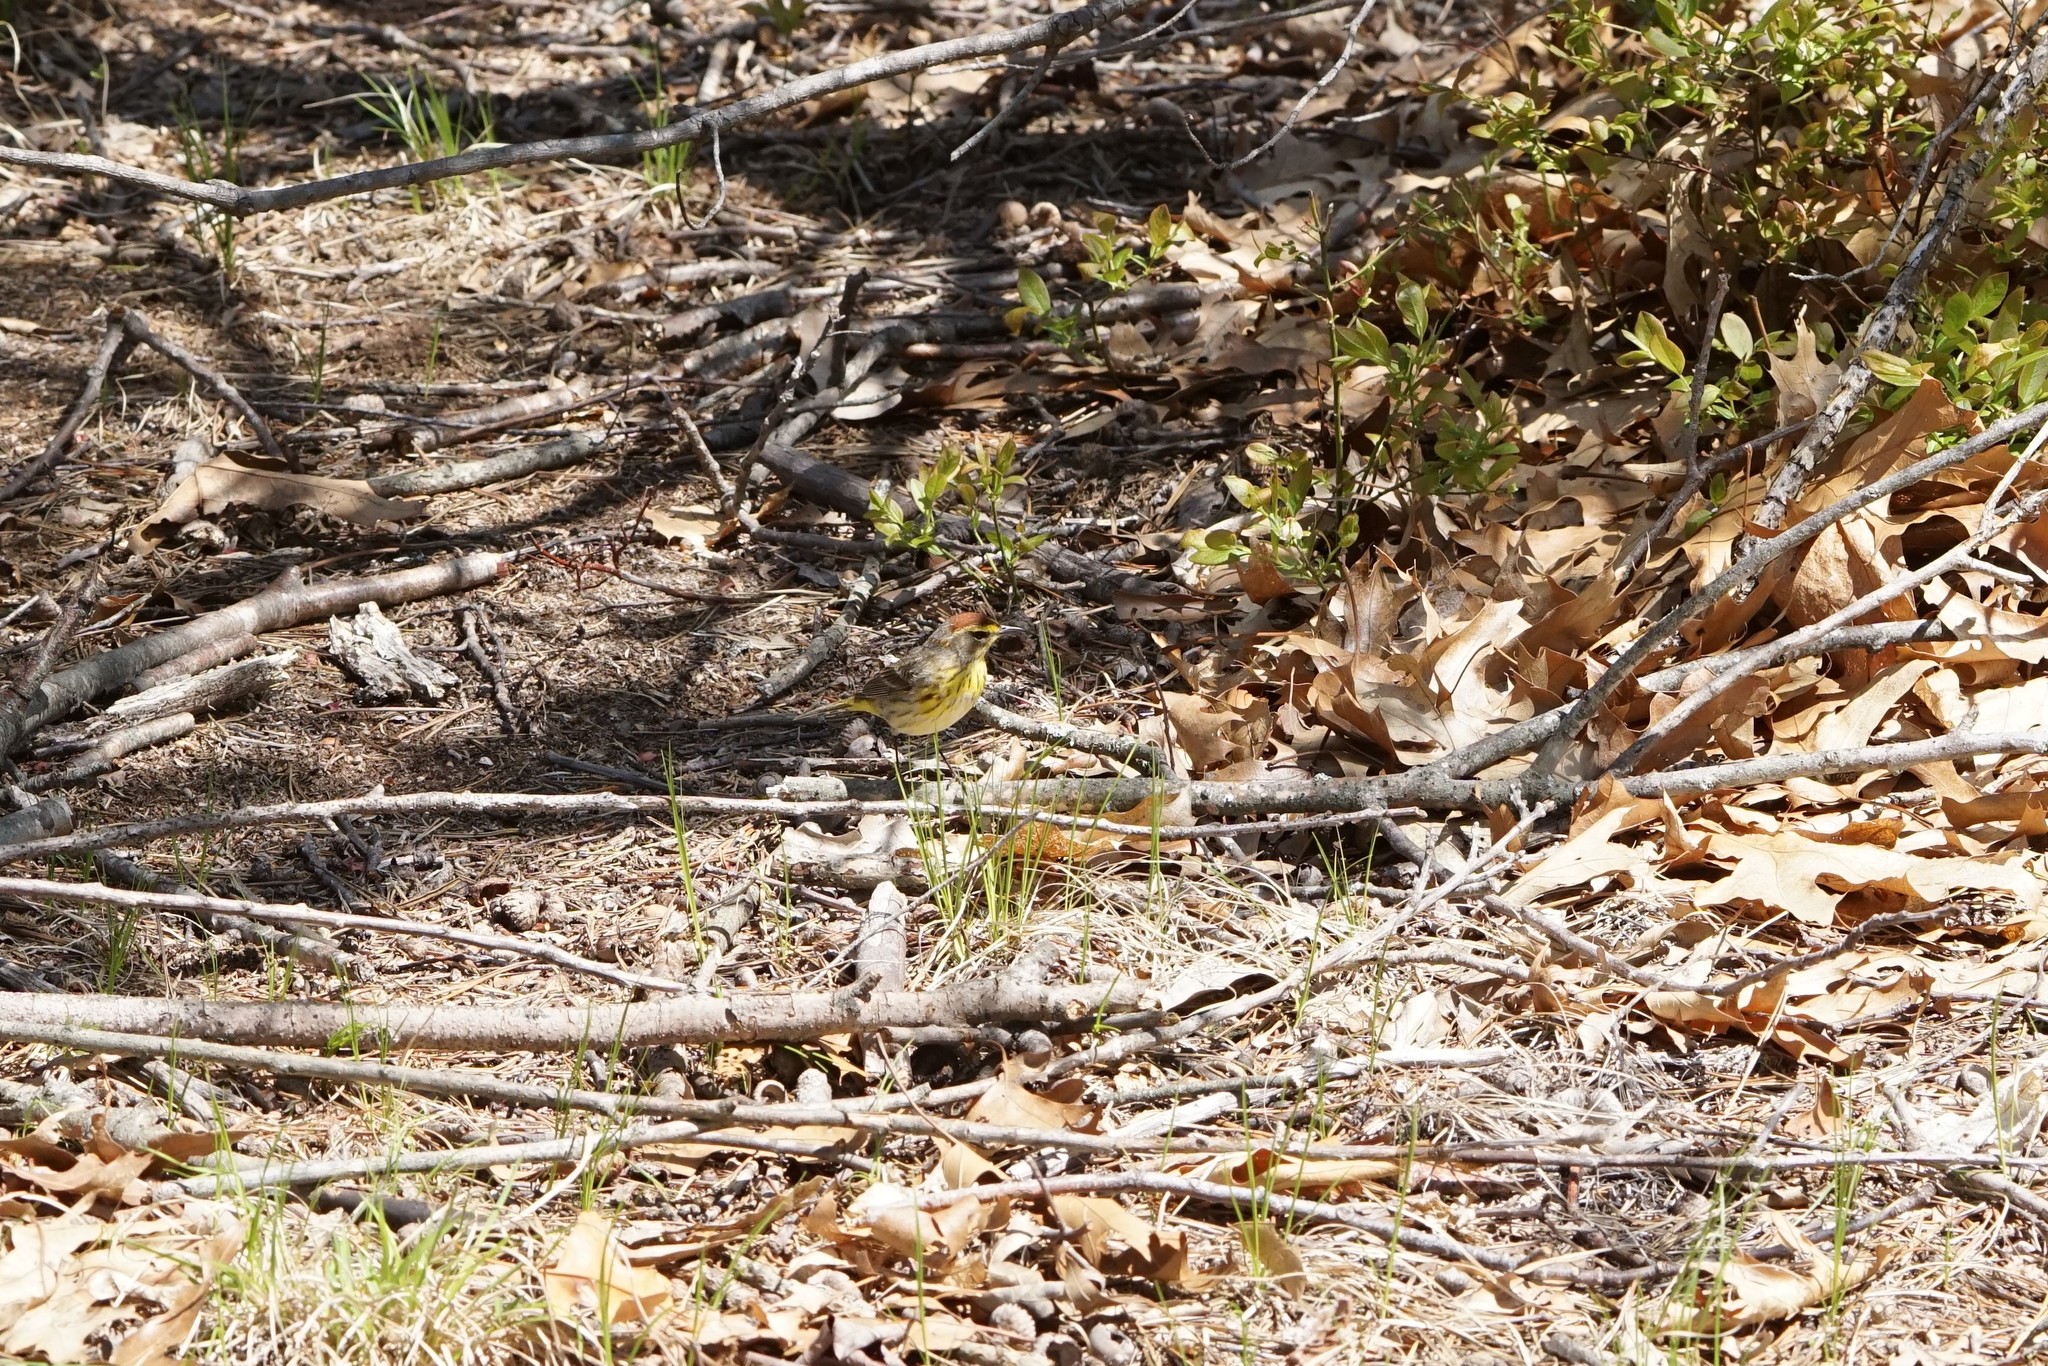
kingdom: Animalia
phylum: Chordata
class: Aves
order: Passeriformes
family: Parulidae
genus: Setophaga
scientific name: Setophaga palmarum
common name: Palm warbler
